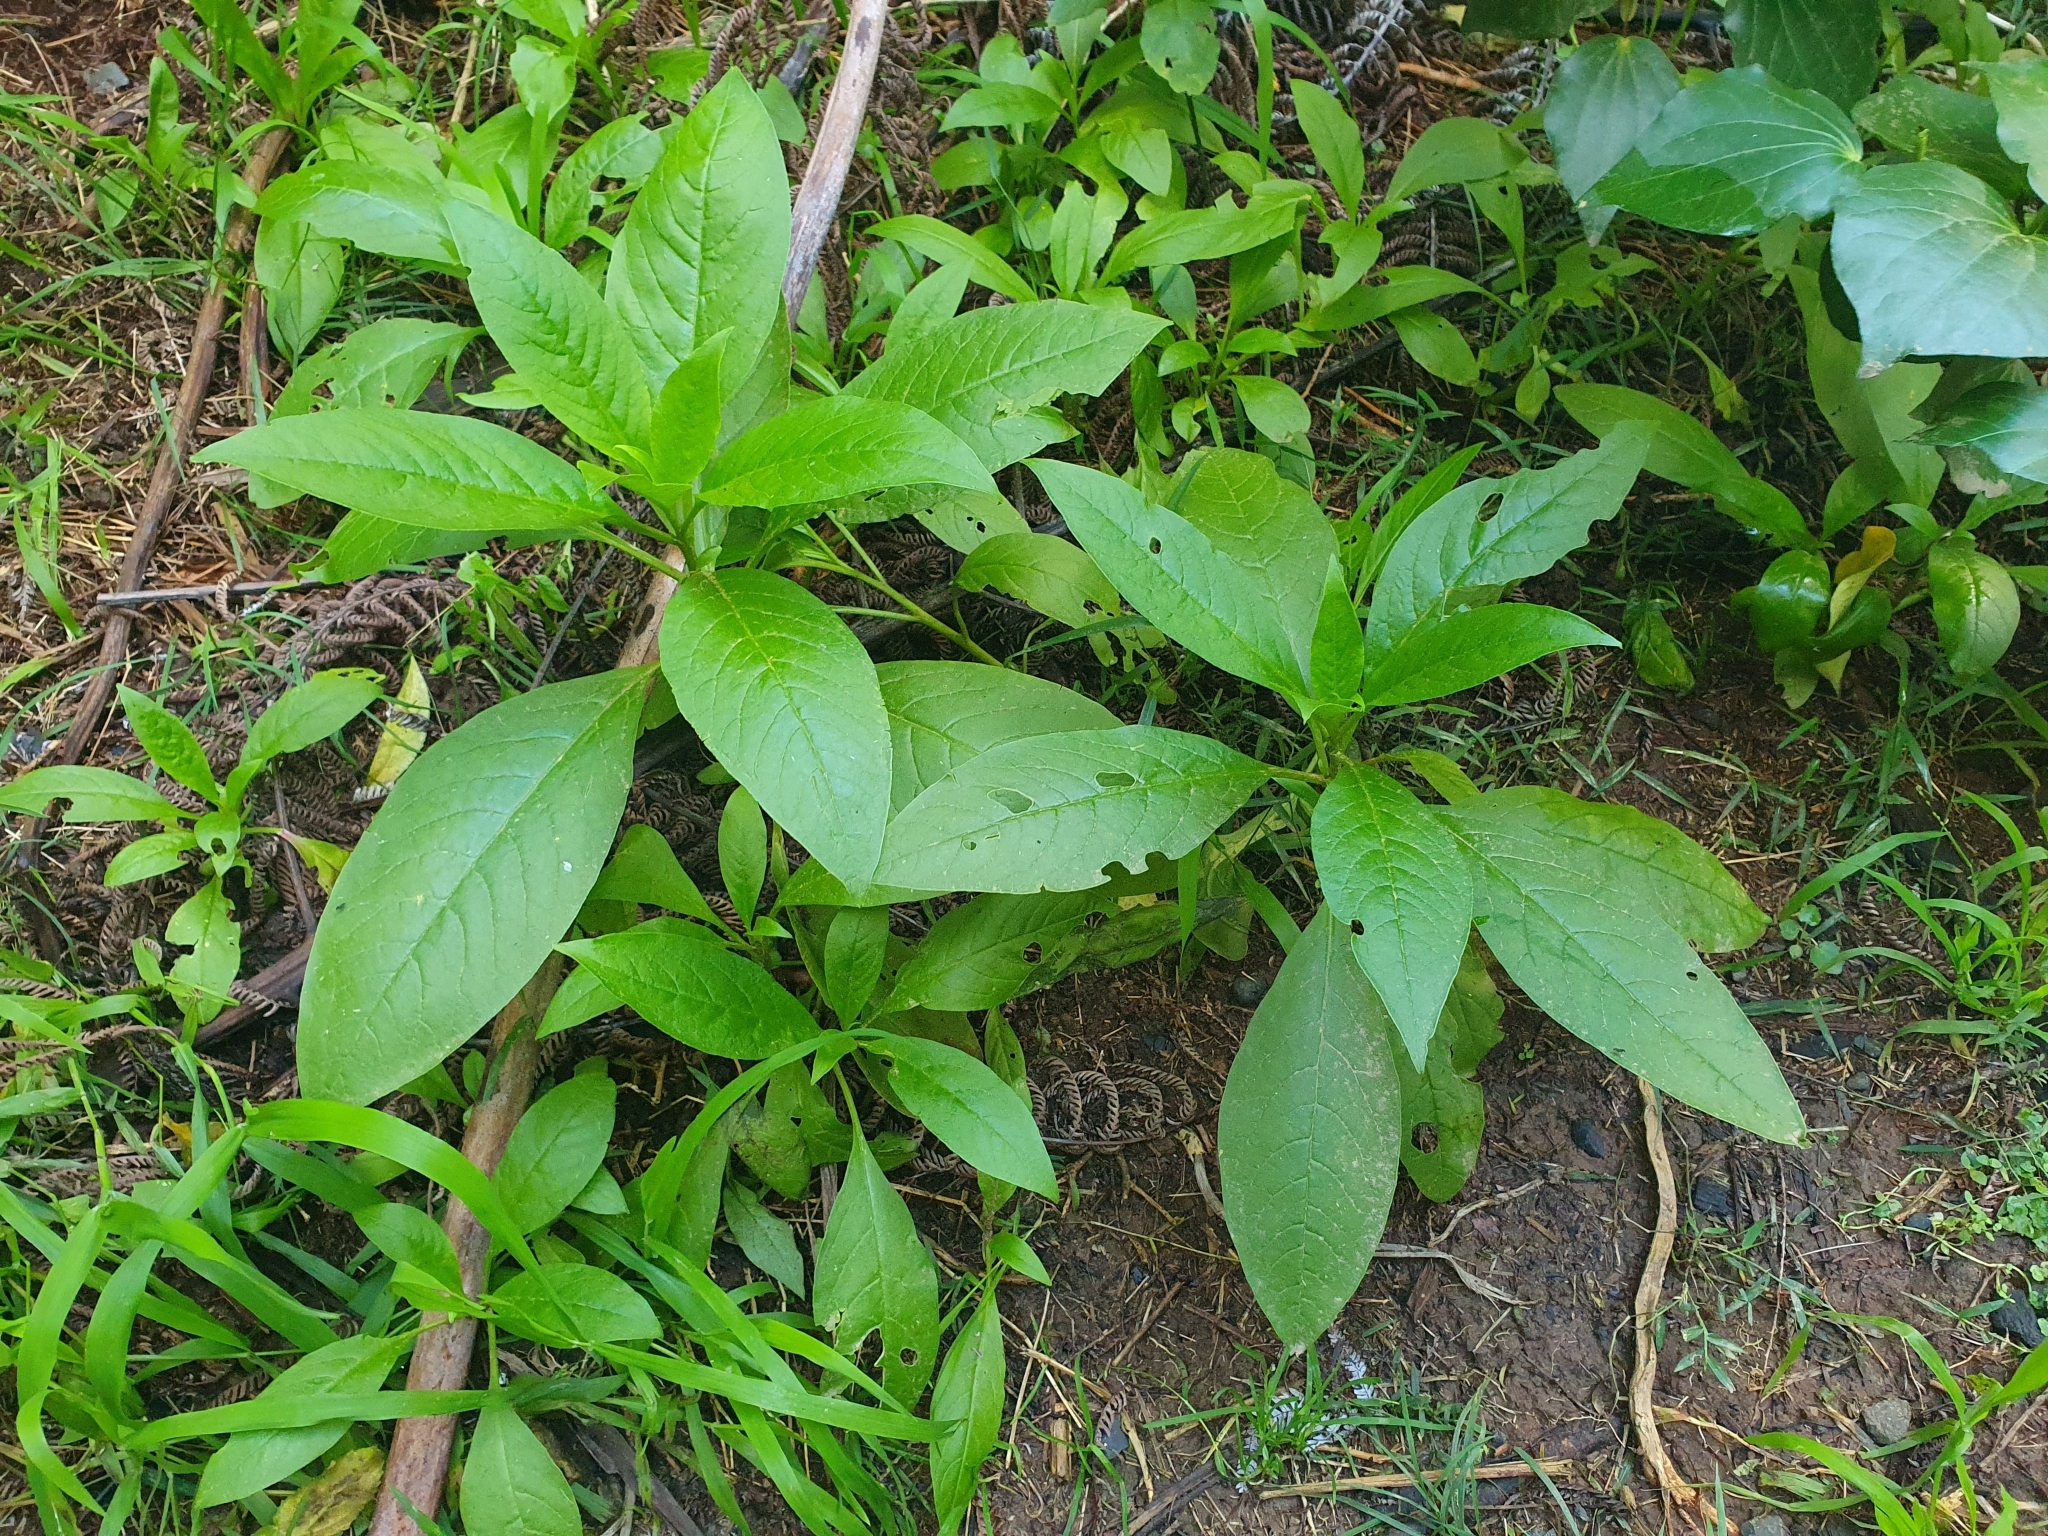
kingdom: Plantae
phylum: Tracheophyta
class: Magnoliopsida
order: Caryophyllales
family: Phytolaccaceae
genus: Phytolacca
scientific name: Phytolacca icosandra
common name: Button pokeweed
